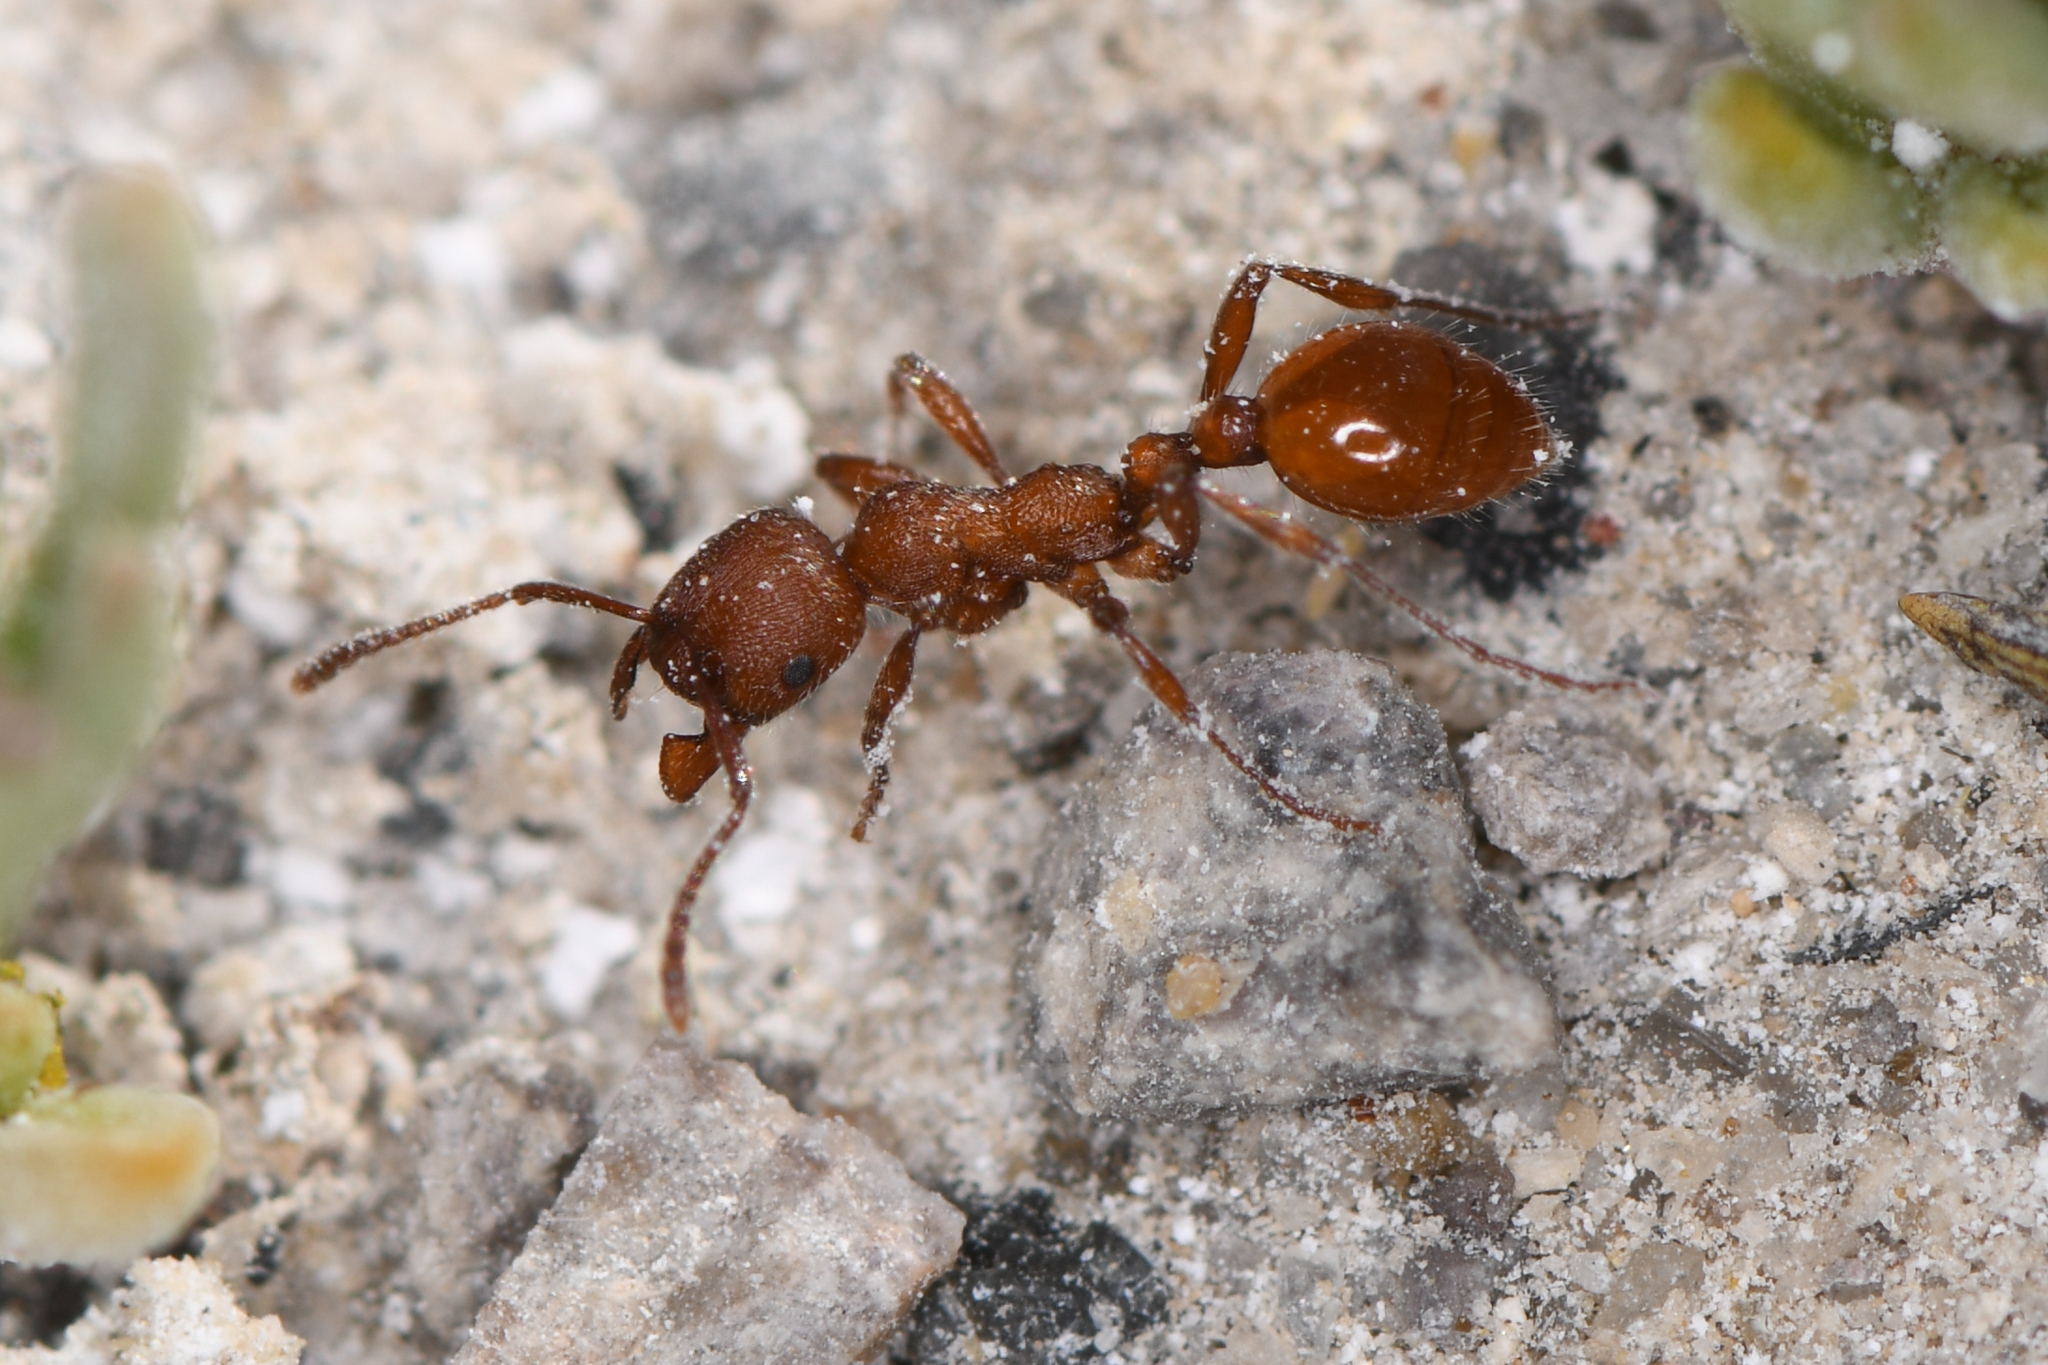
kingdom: Animalia
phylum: Arthropoda
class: Insecta
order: Hymenoptera
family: Formicidae
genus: Manica
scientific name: Manica invidia
